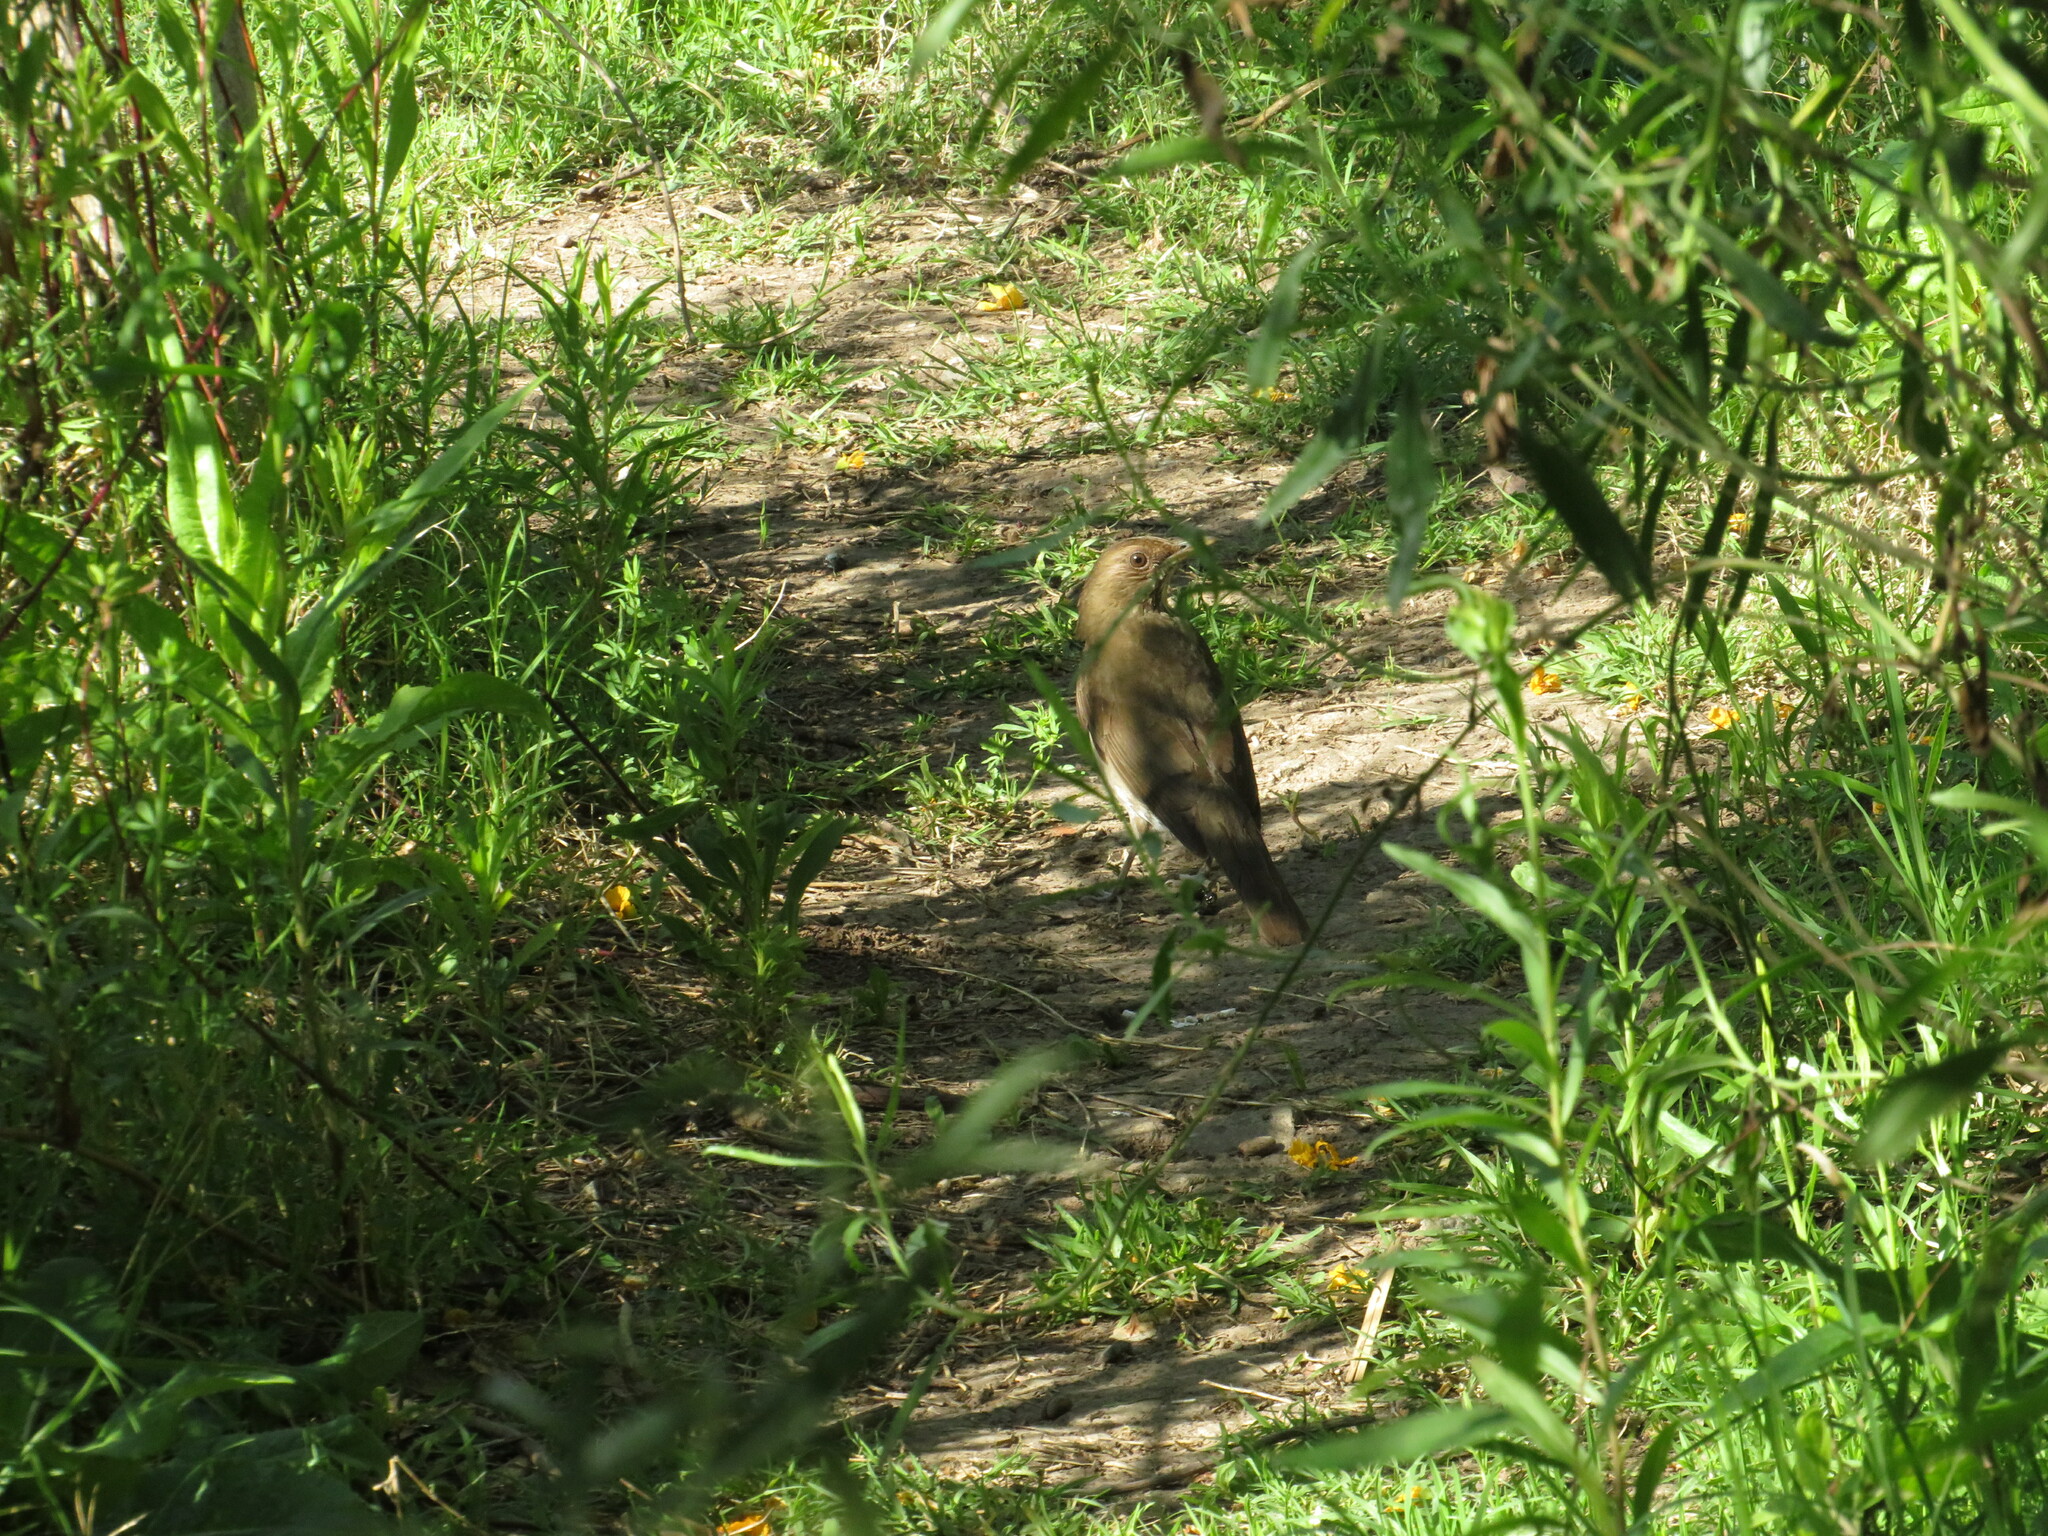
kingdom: Animalia
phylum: Chordata
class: Aves
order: Passeriformes
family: Turdidae
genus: Turdus
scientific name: Turdus amaurochalinus
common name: Creamy-bellied thrush
